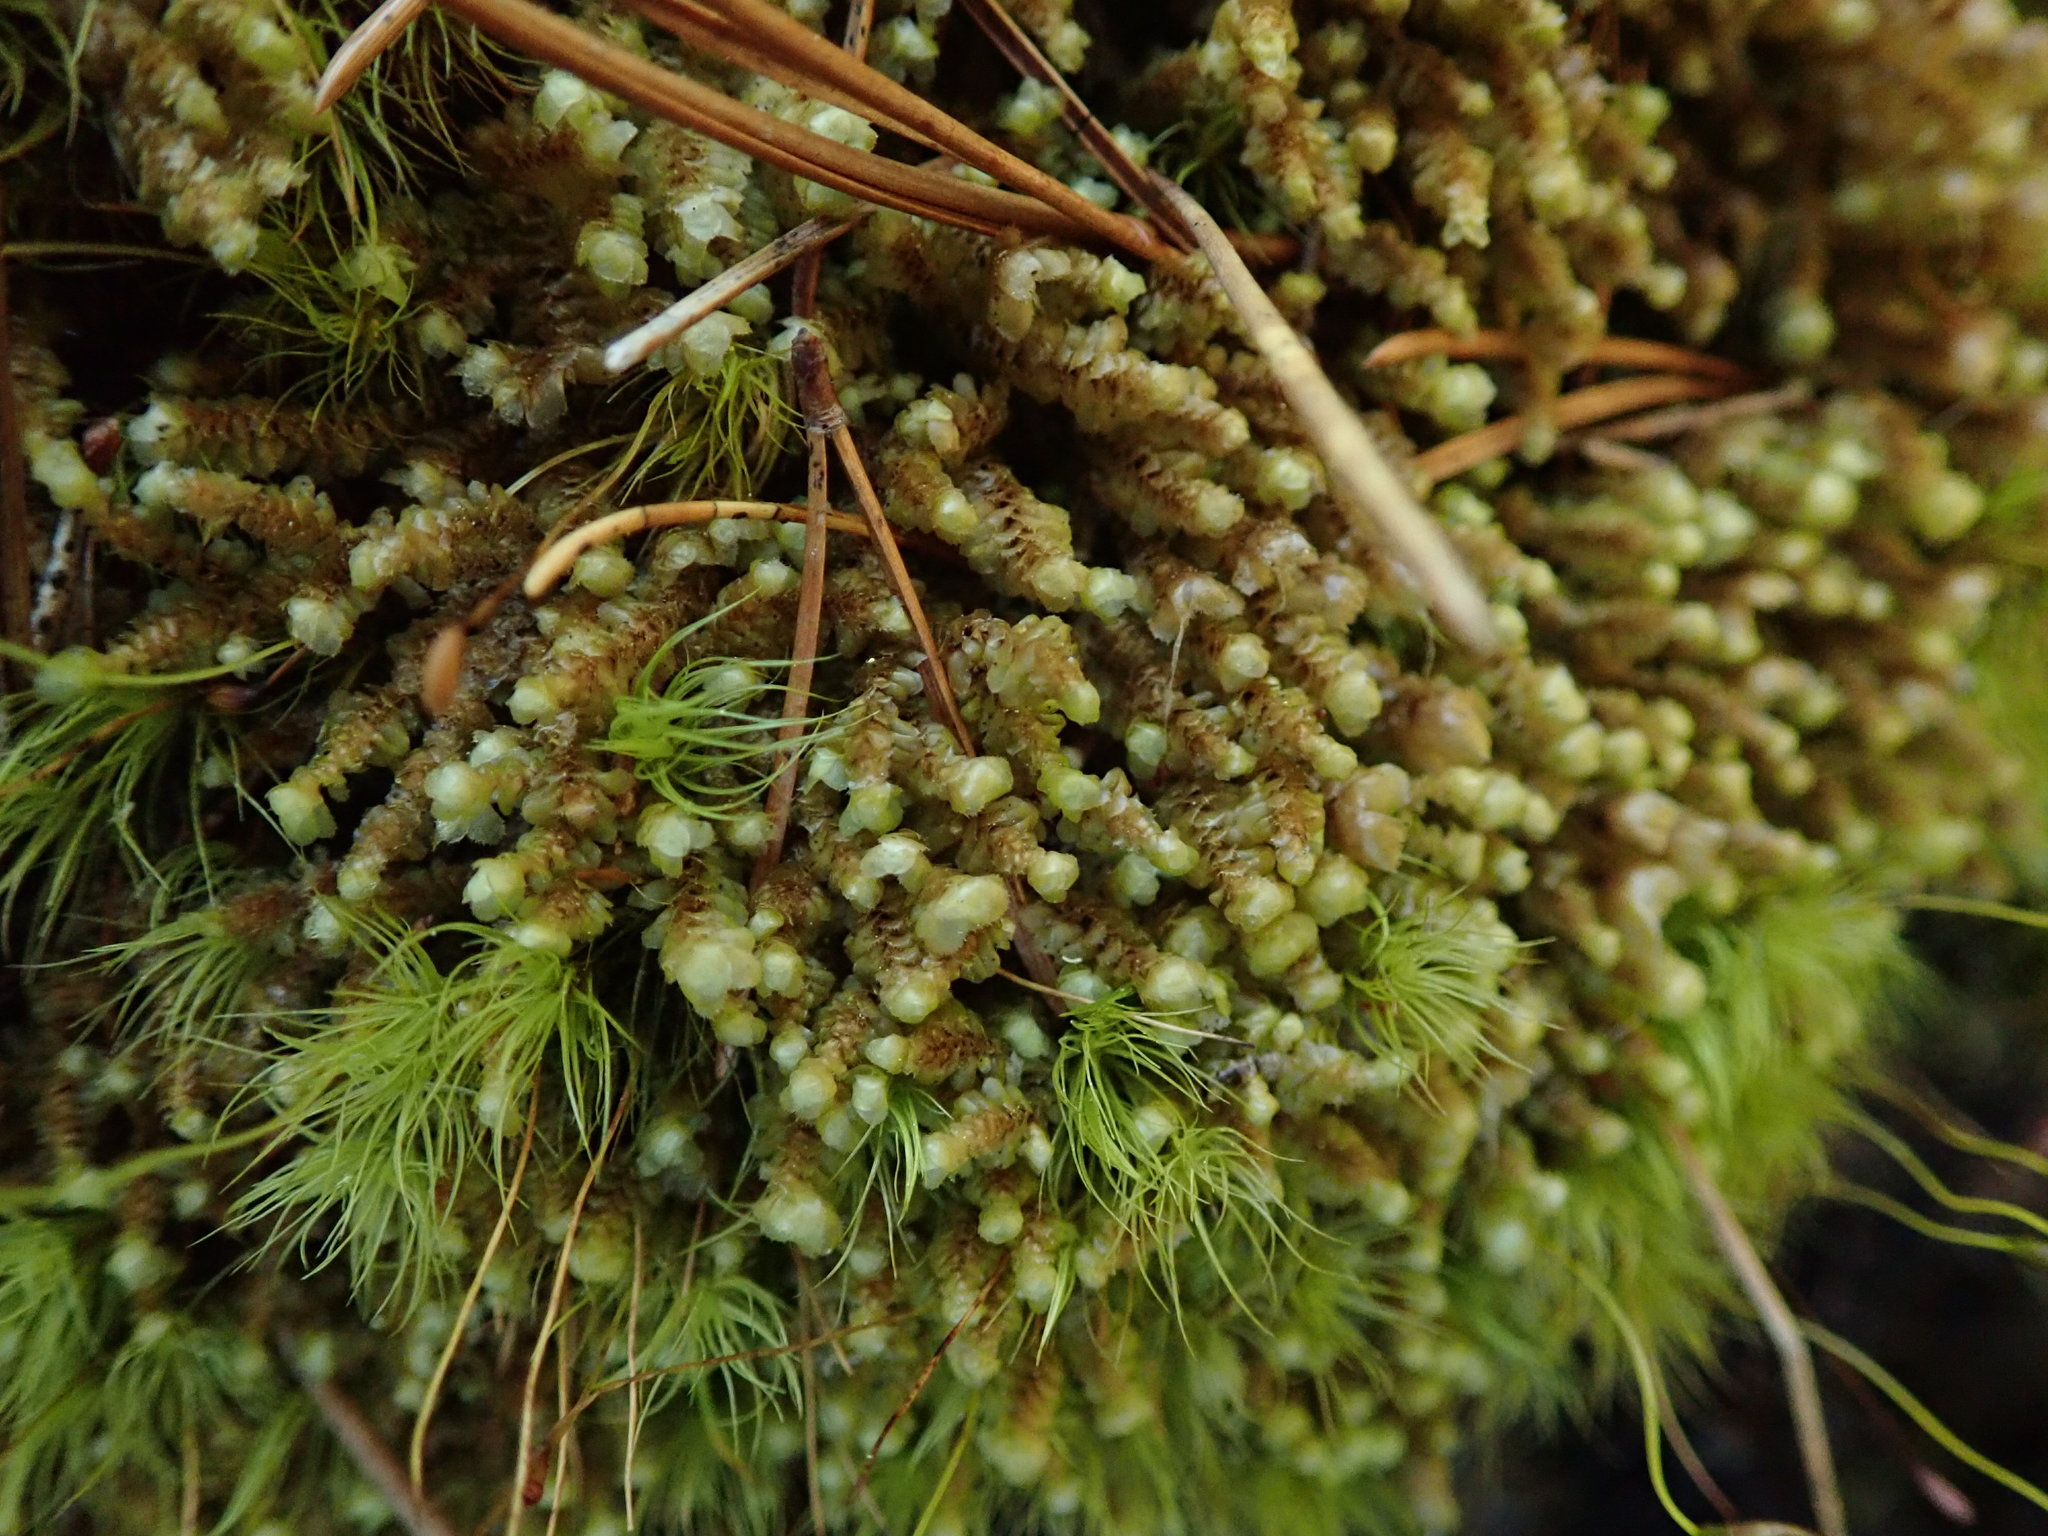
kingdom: Plantae
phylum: Marchantiophyta
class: Jungermanniopsida
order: Jungermanniales
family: Scapaniaceae
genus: Scapania
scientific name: Scapania bolanderi
